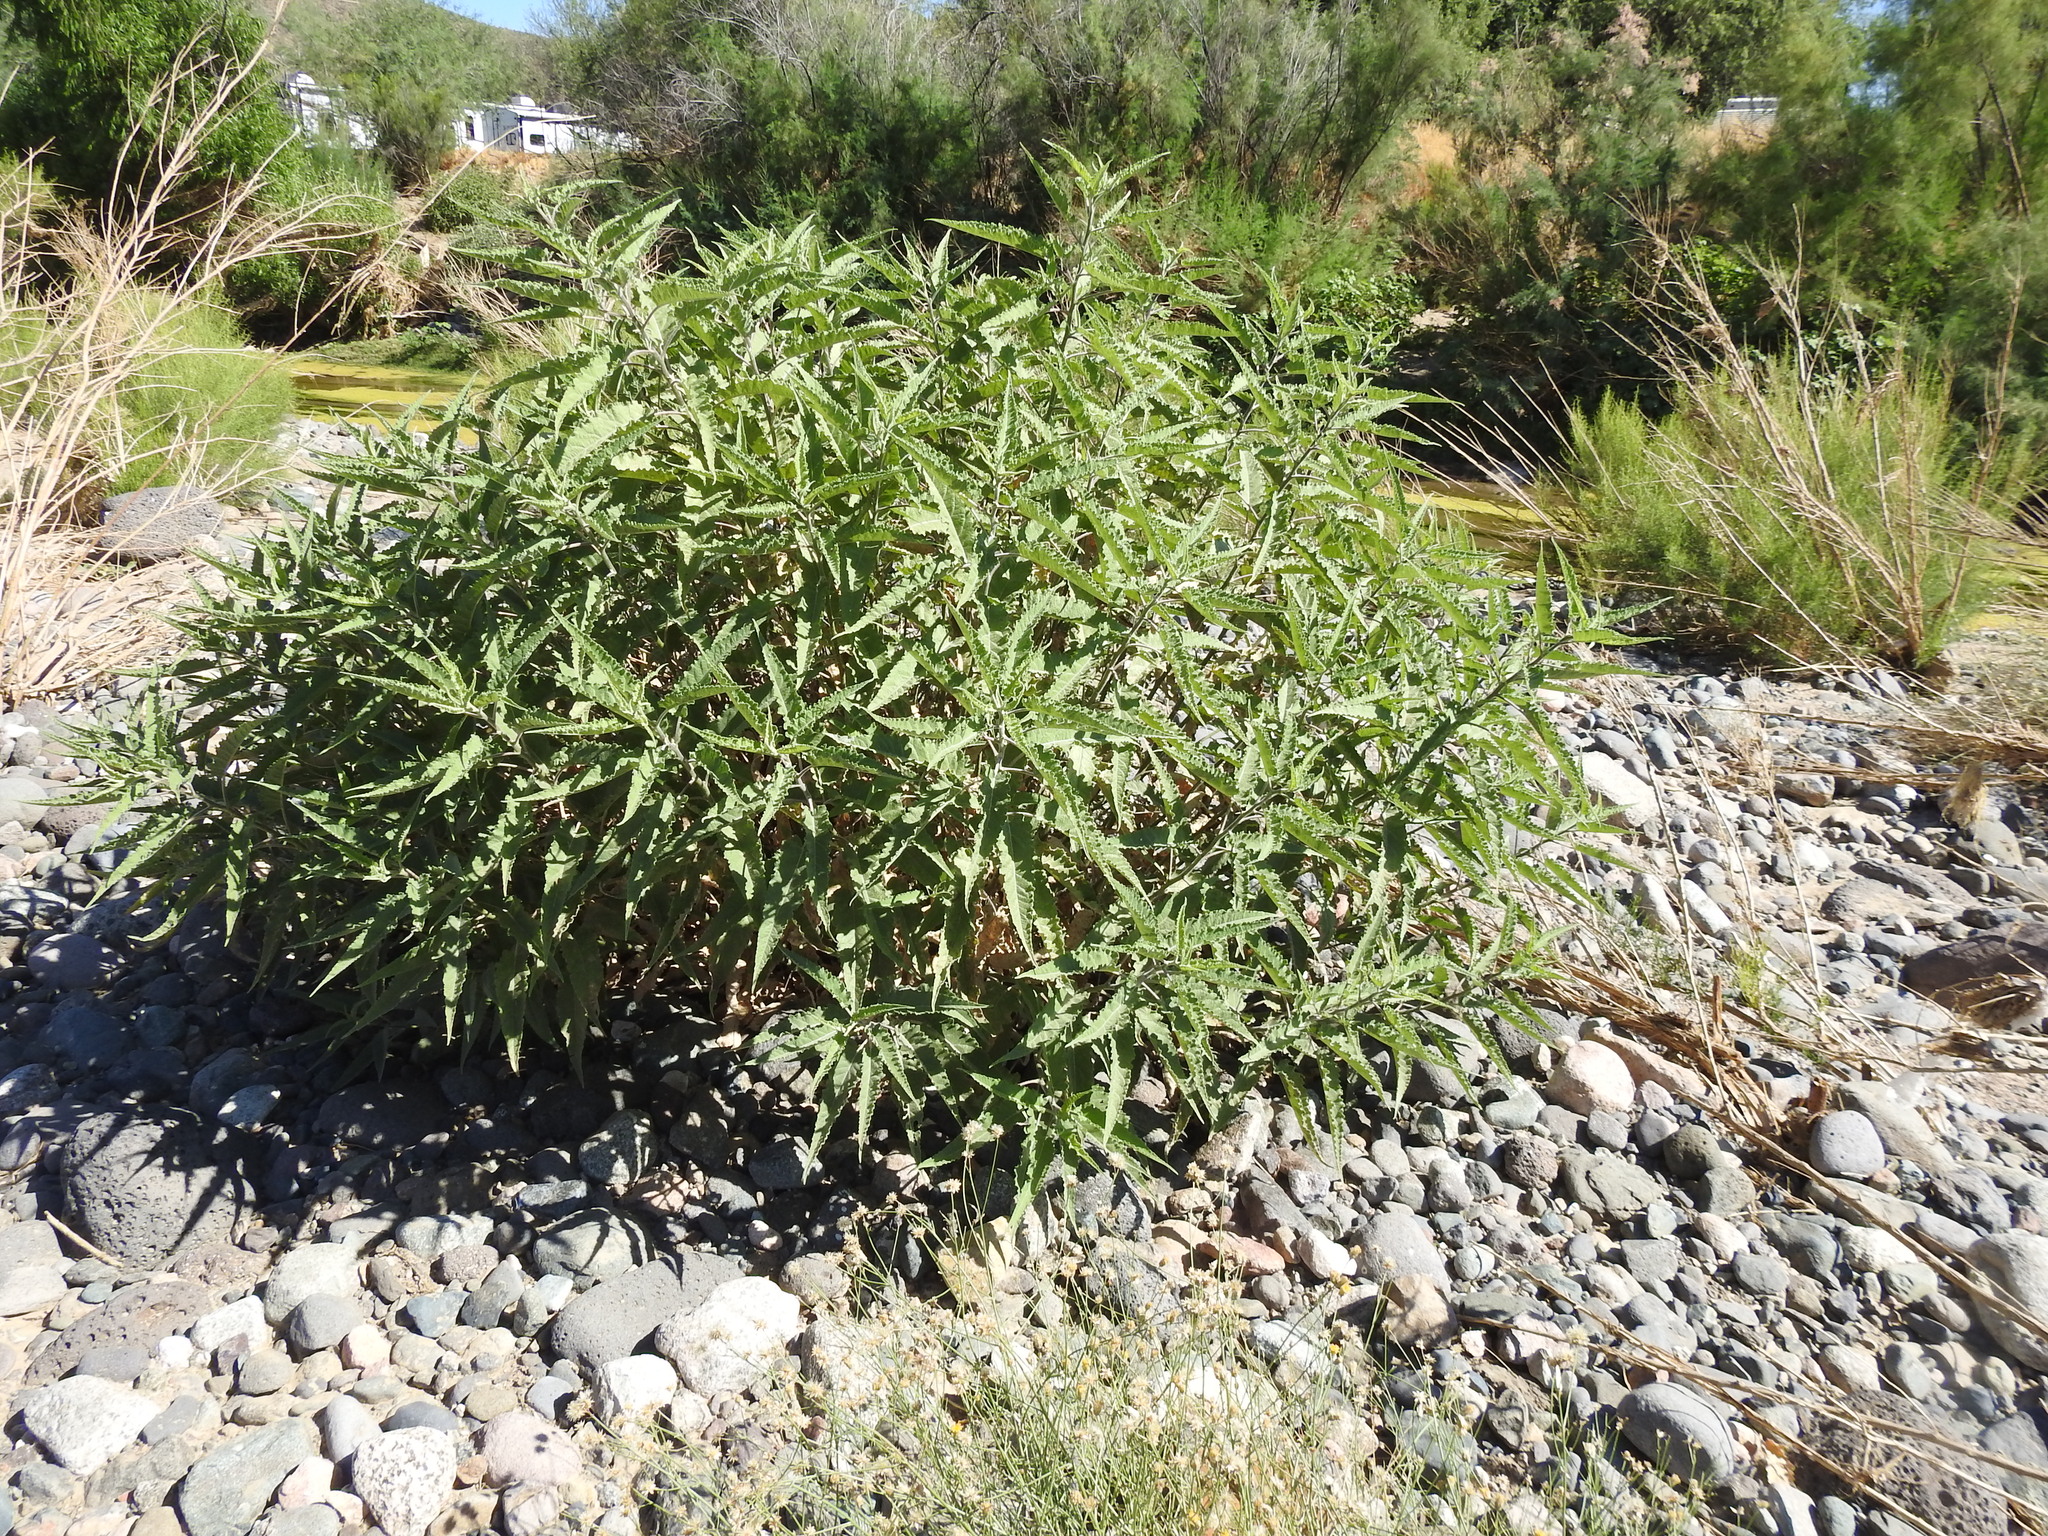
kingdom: Plantae
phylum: Tracheophyta
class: Magnoliopsida
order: Asterales
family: Asteraceae
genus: Ambrosia
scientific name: Ambrosia ambrosioides
